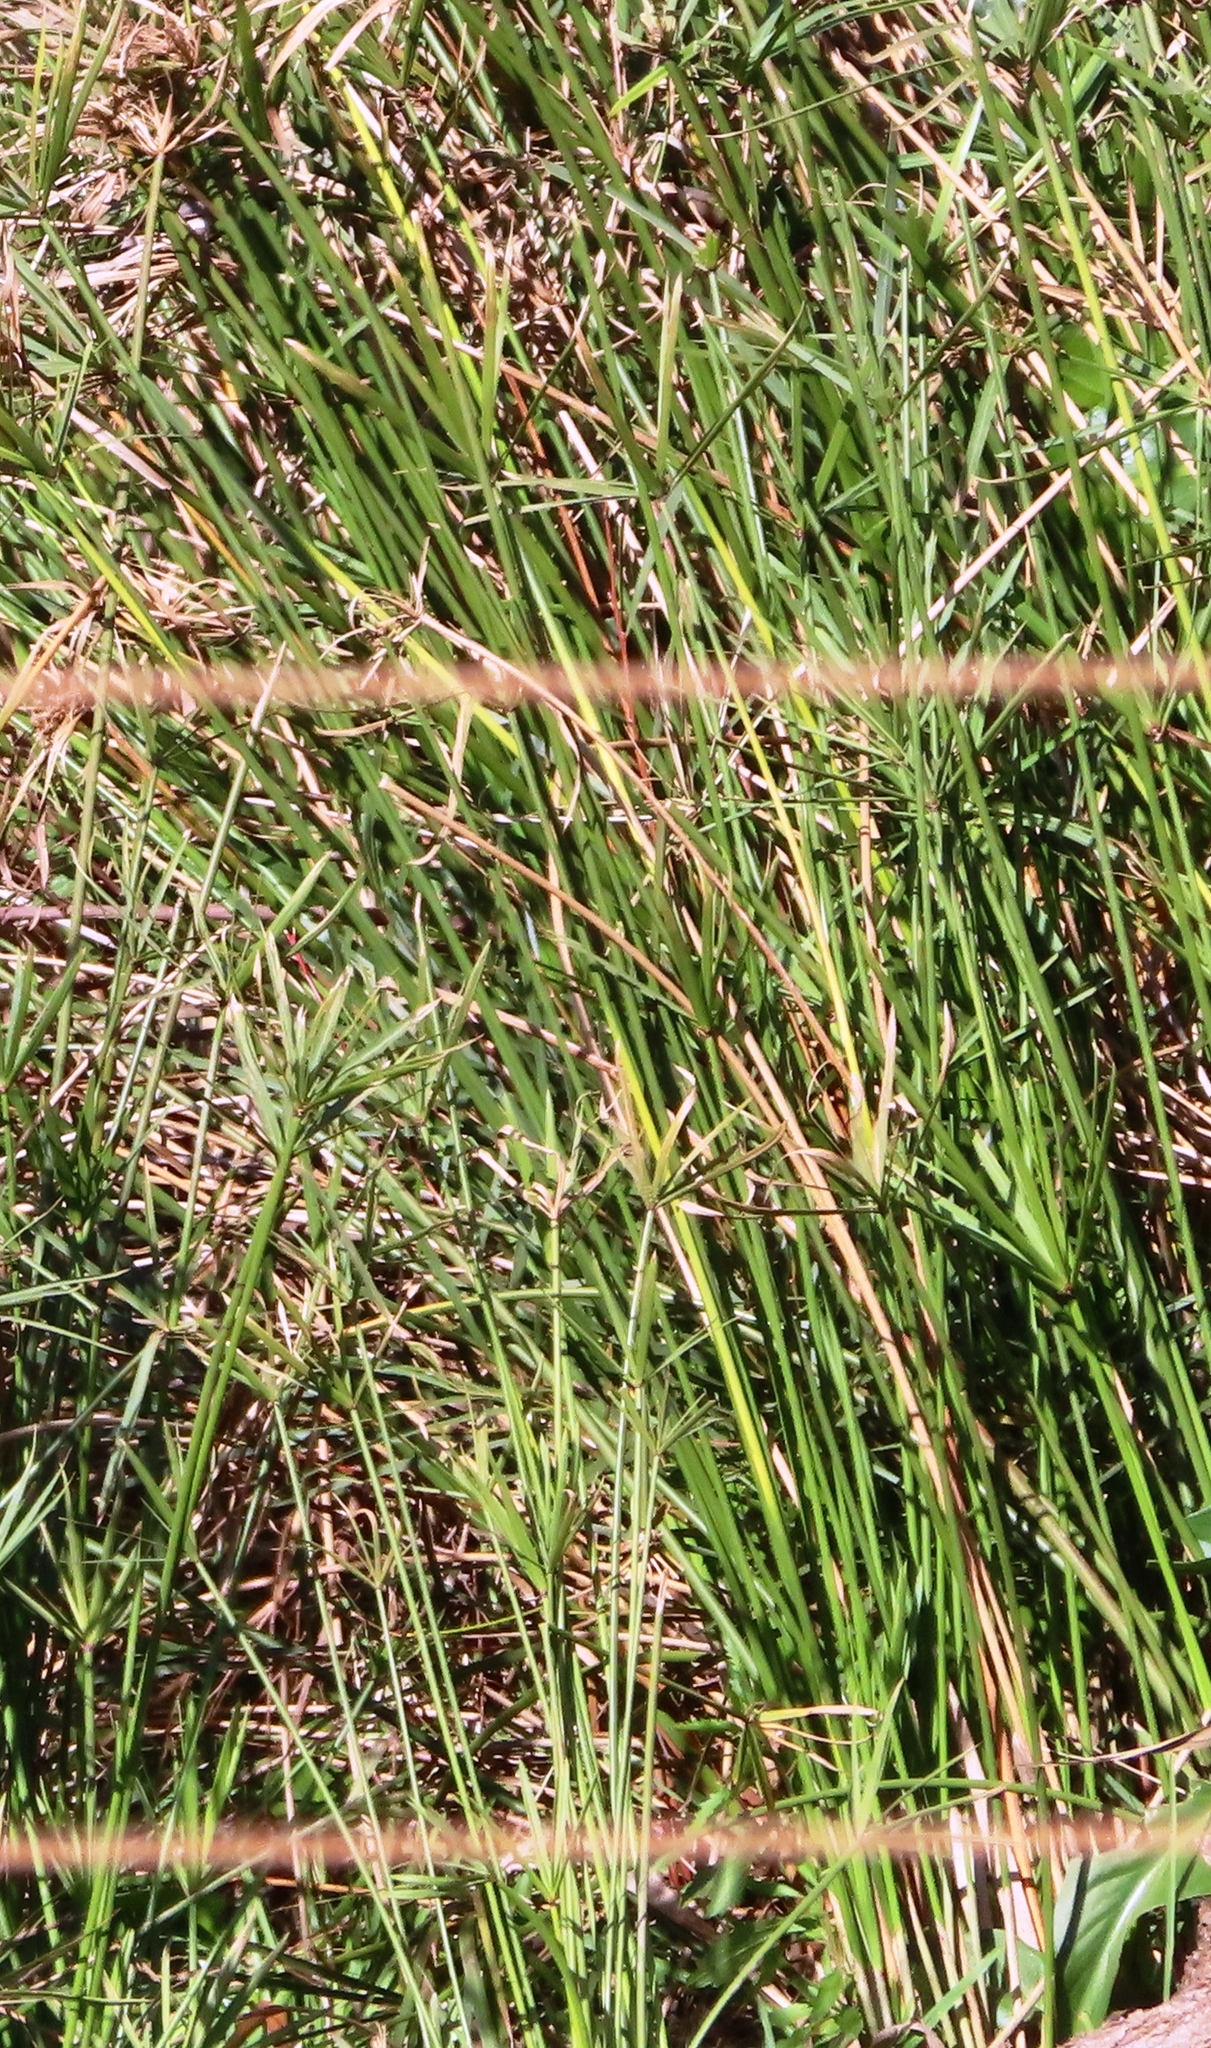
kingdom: Plantae
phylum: Tracheophyta
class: Liliopsida
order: Poales
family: Cyperaceae
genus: Cyperus
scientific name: Cyperus textilis
